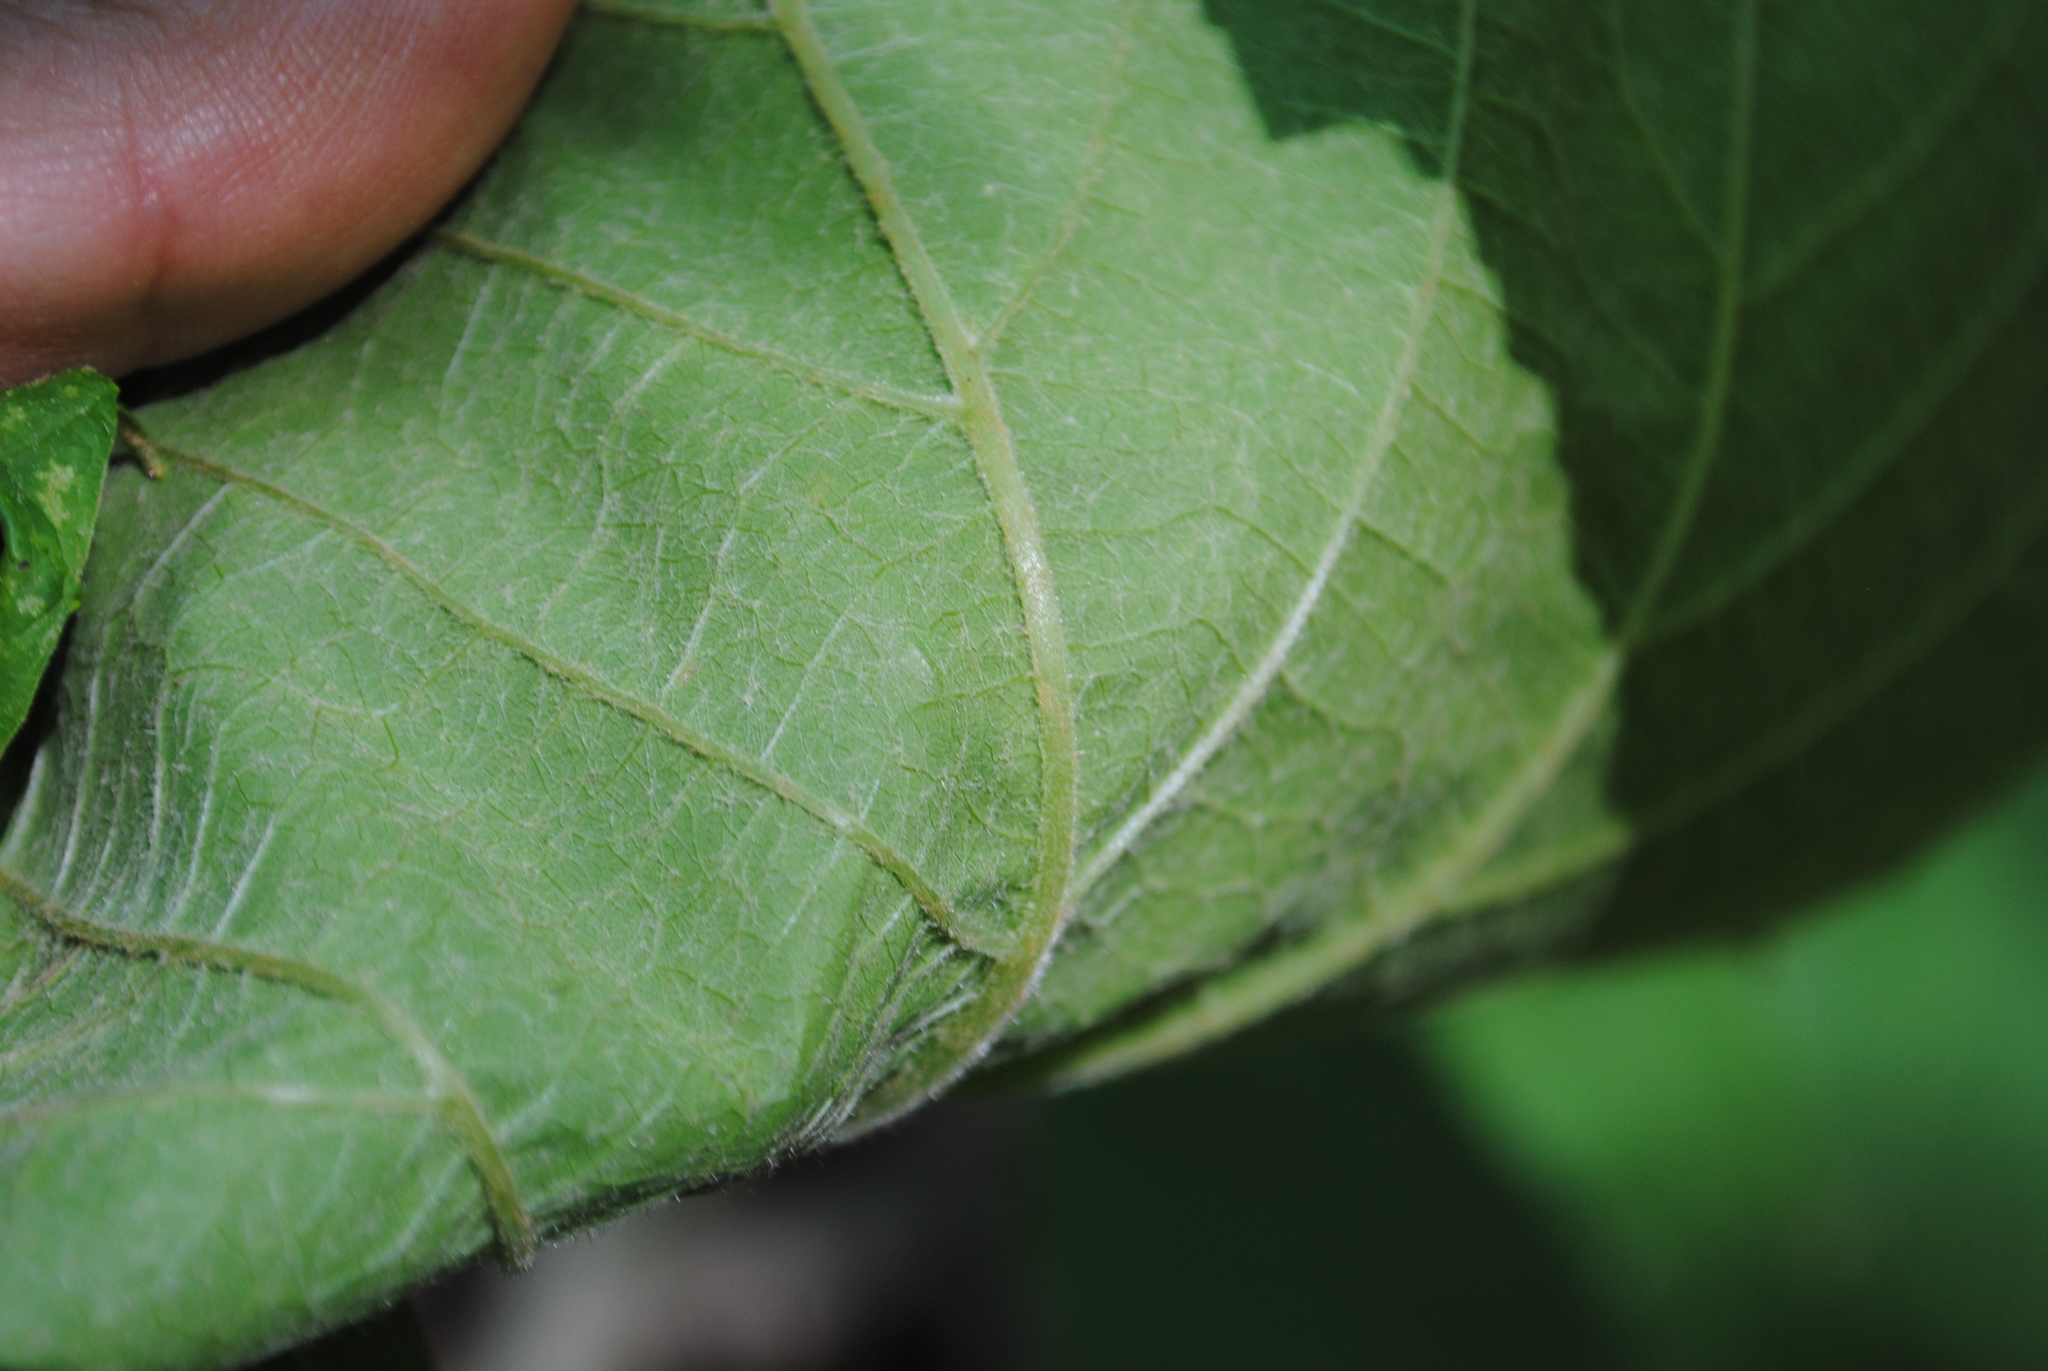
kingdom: Plantae
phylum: Tracheophyta
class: Magnoliopsida
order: Vitales
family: Vitaceae
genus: Vitis
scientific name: Vitis novae-angliae
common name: New england grape
